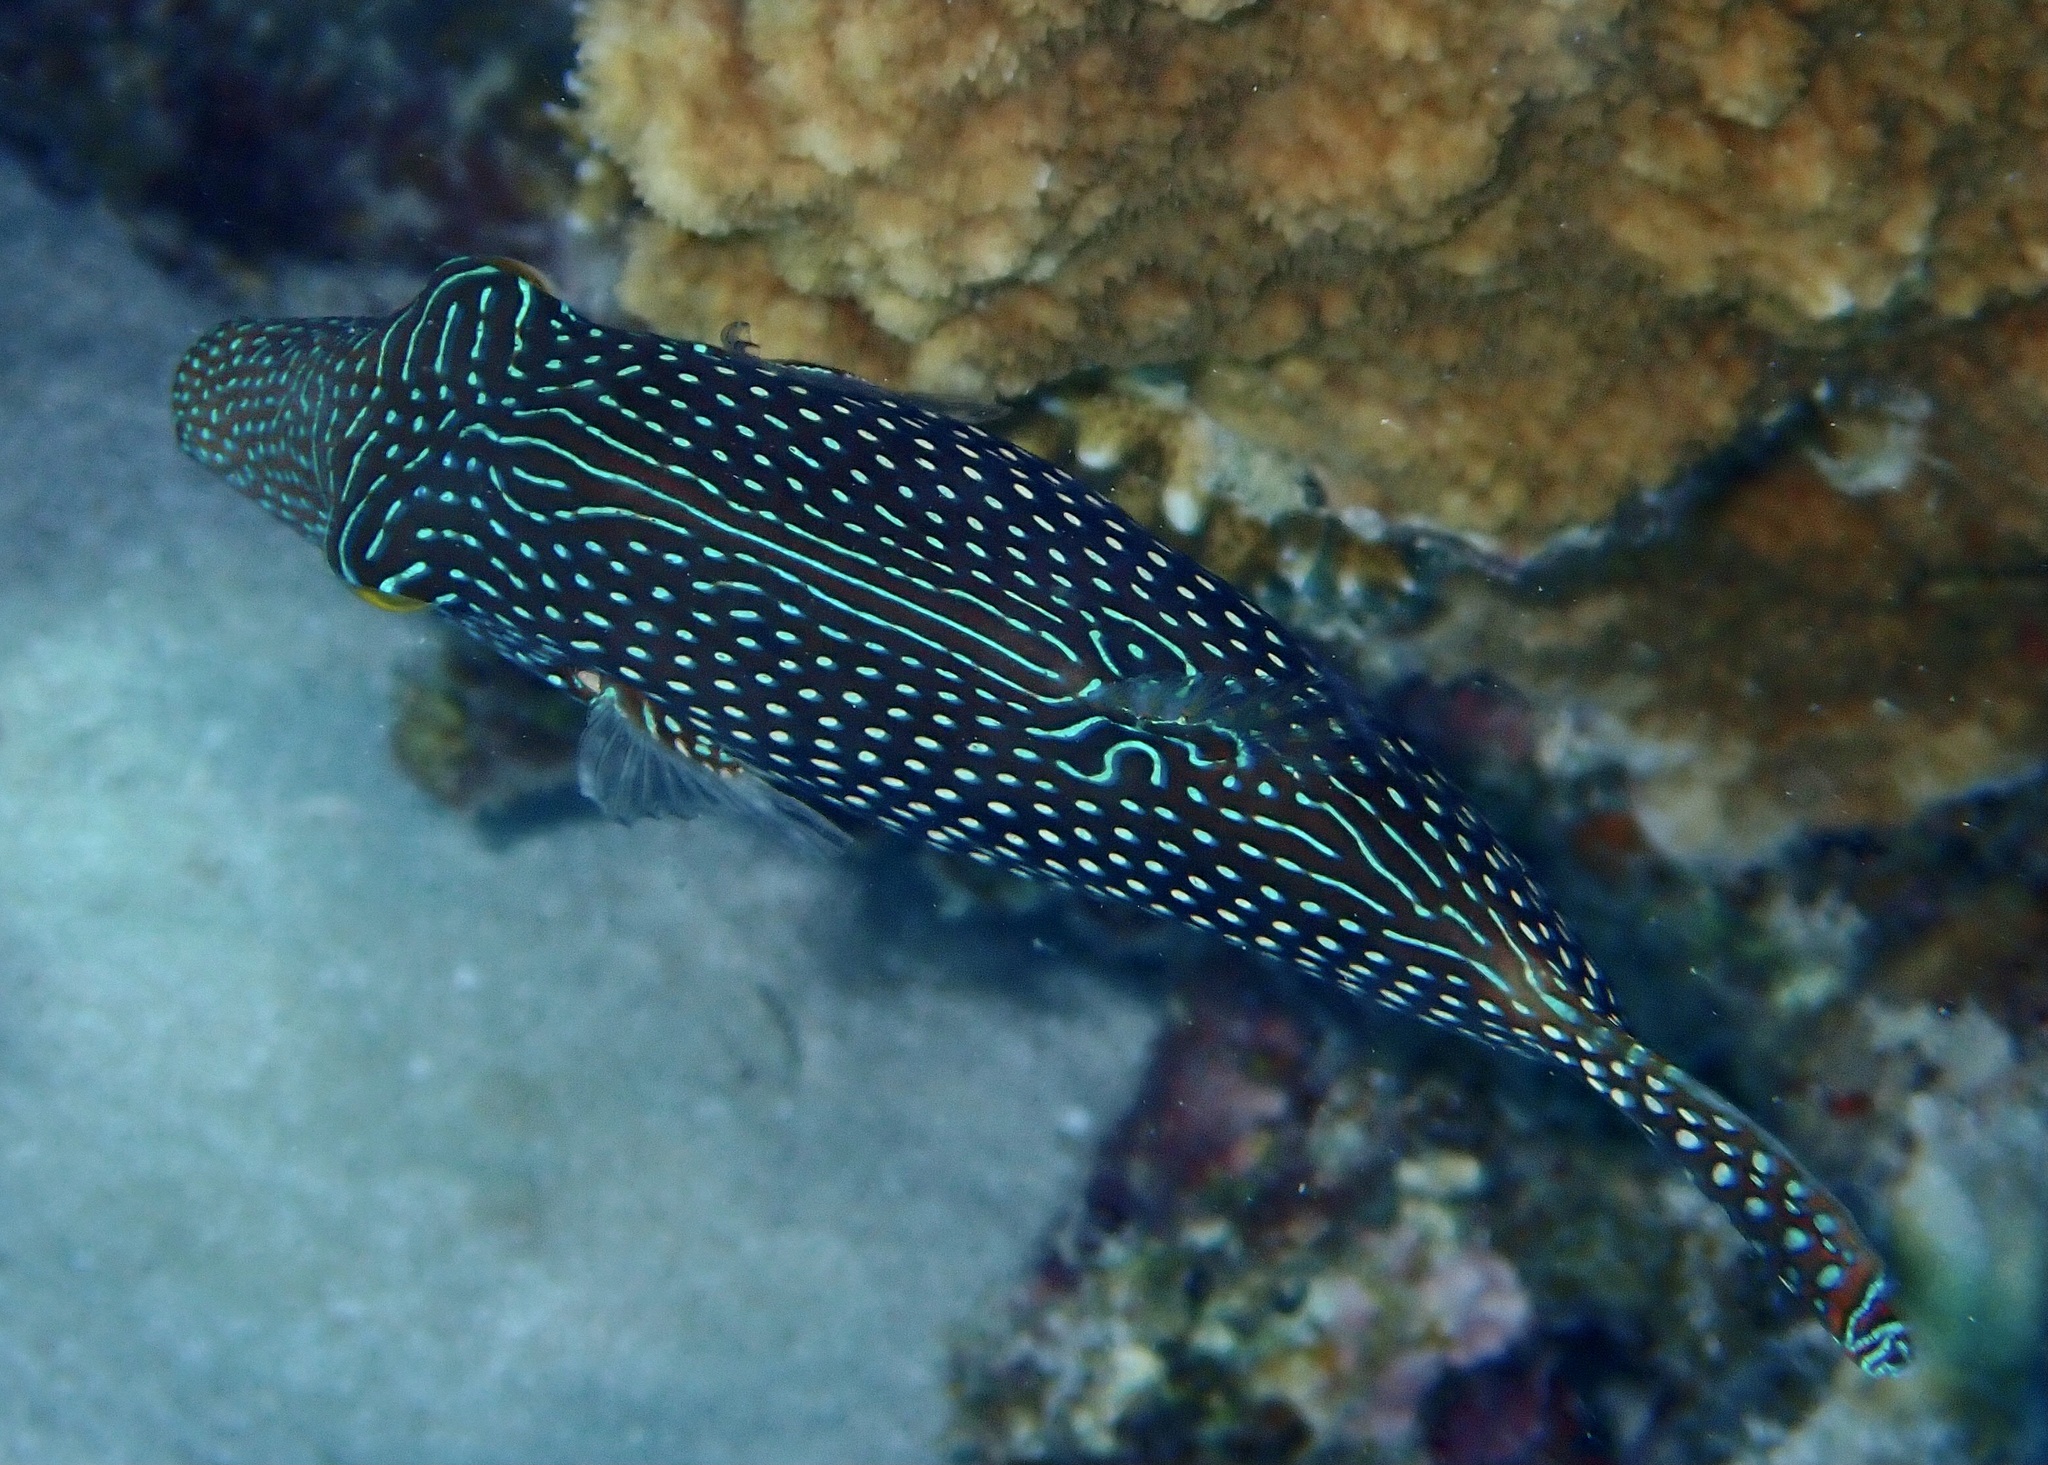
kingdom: Animalia
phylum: Chordata
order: Tetraodontiformes
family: Tetraodontidae
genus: Canthigaster
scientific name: Canthigaster margaritata
